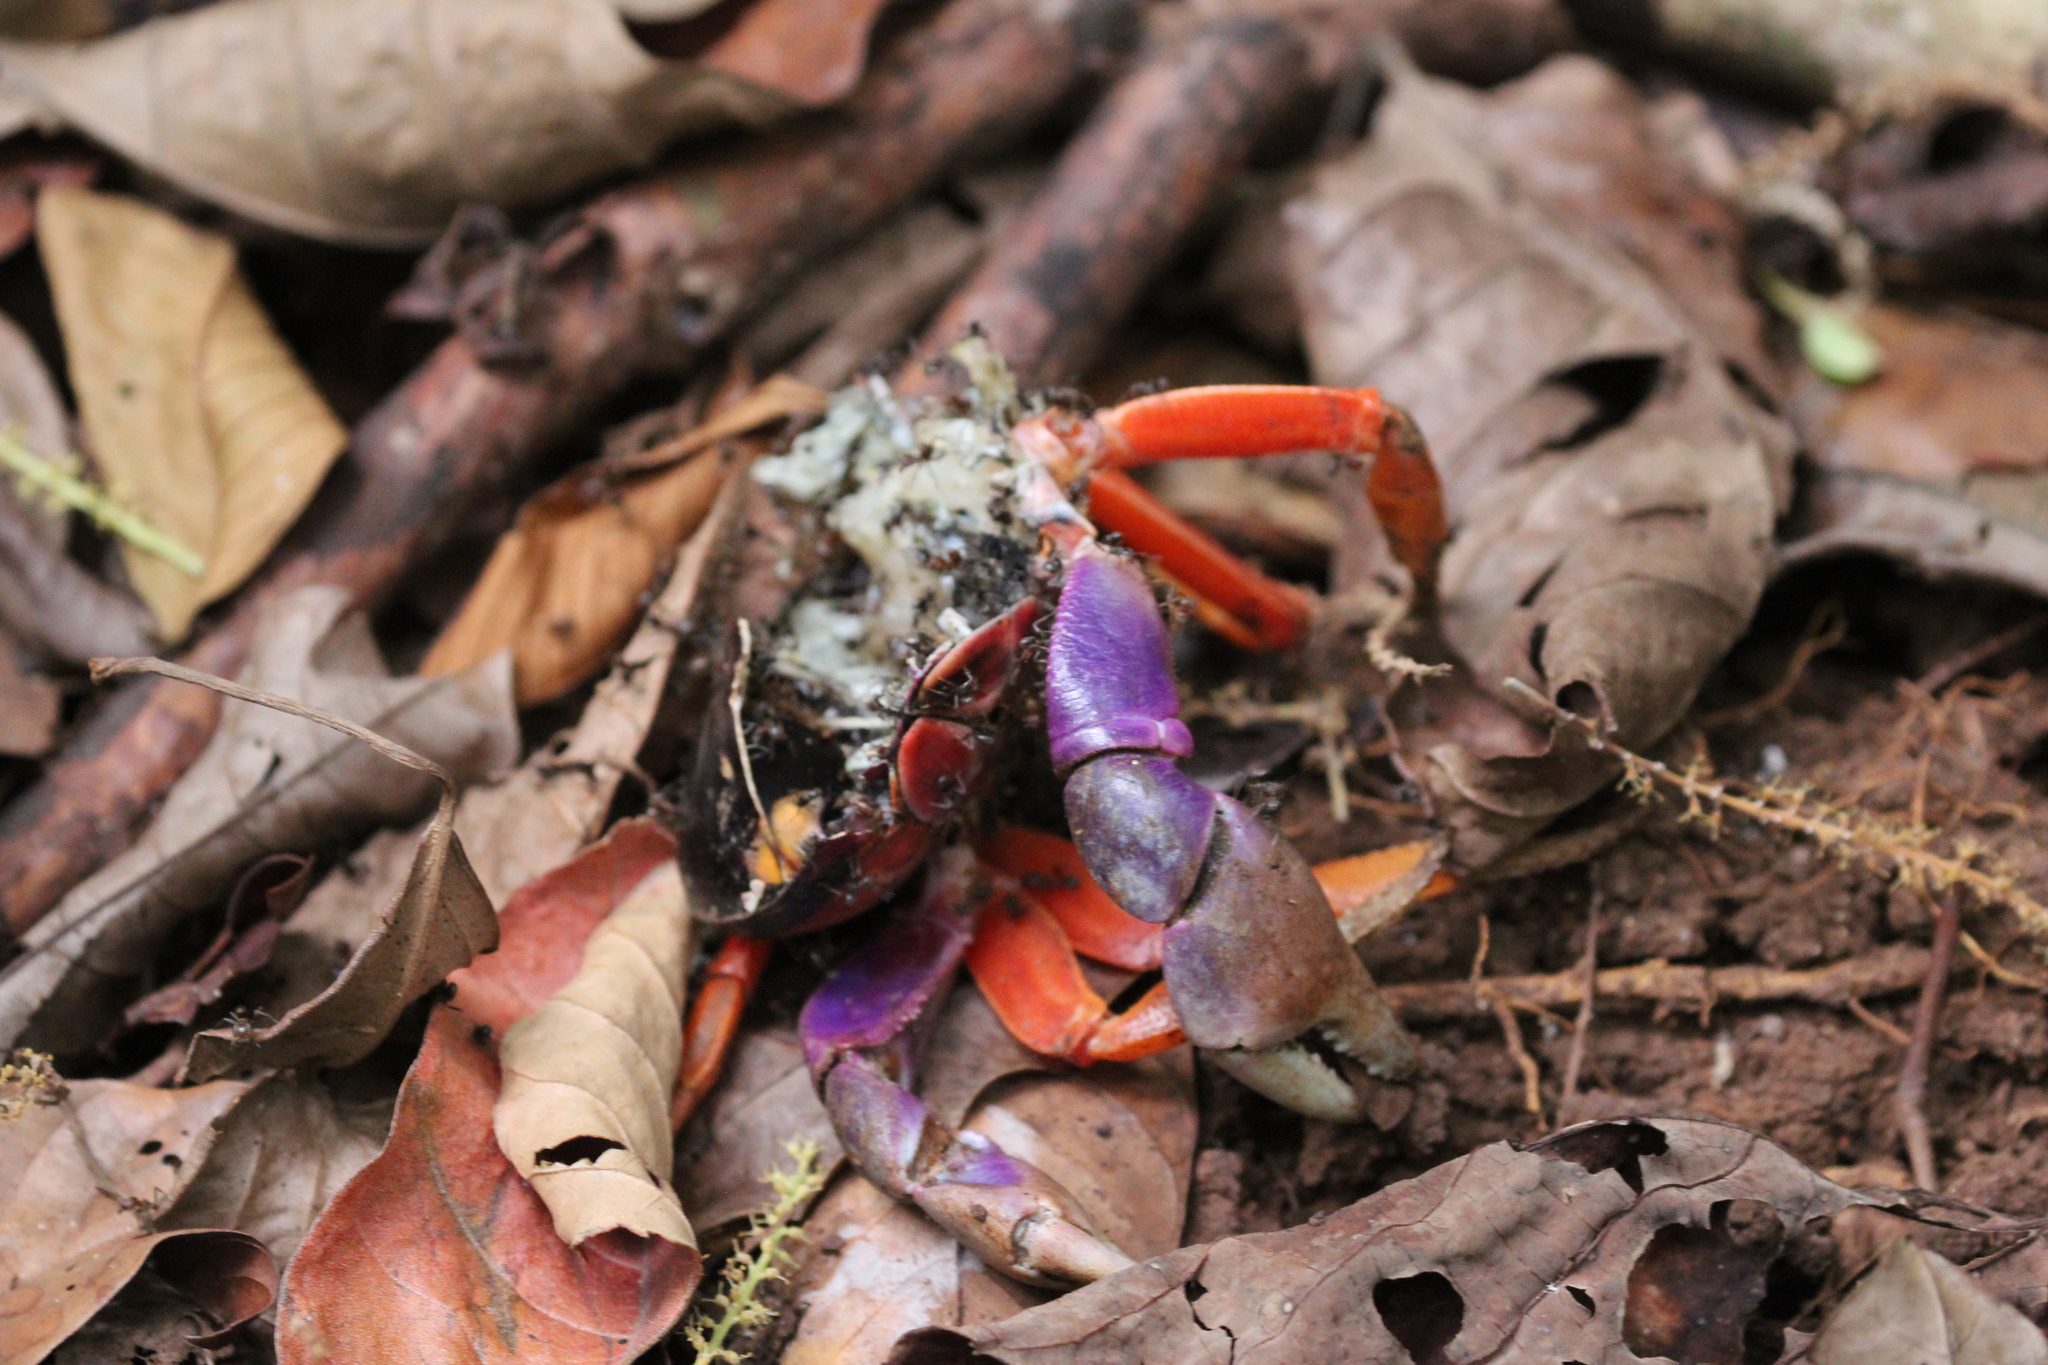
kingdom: Animalia
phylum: Arthropoda
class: Malacostraca
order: Decapoda
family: Gecarcinidae
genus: Gecarcinus
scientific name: Gecarcinus quadratus
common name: Halloween crab
